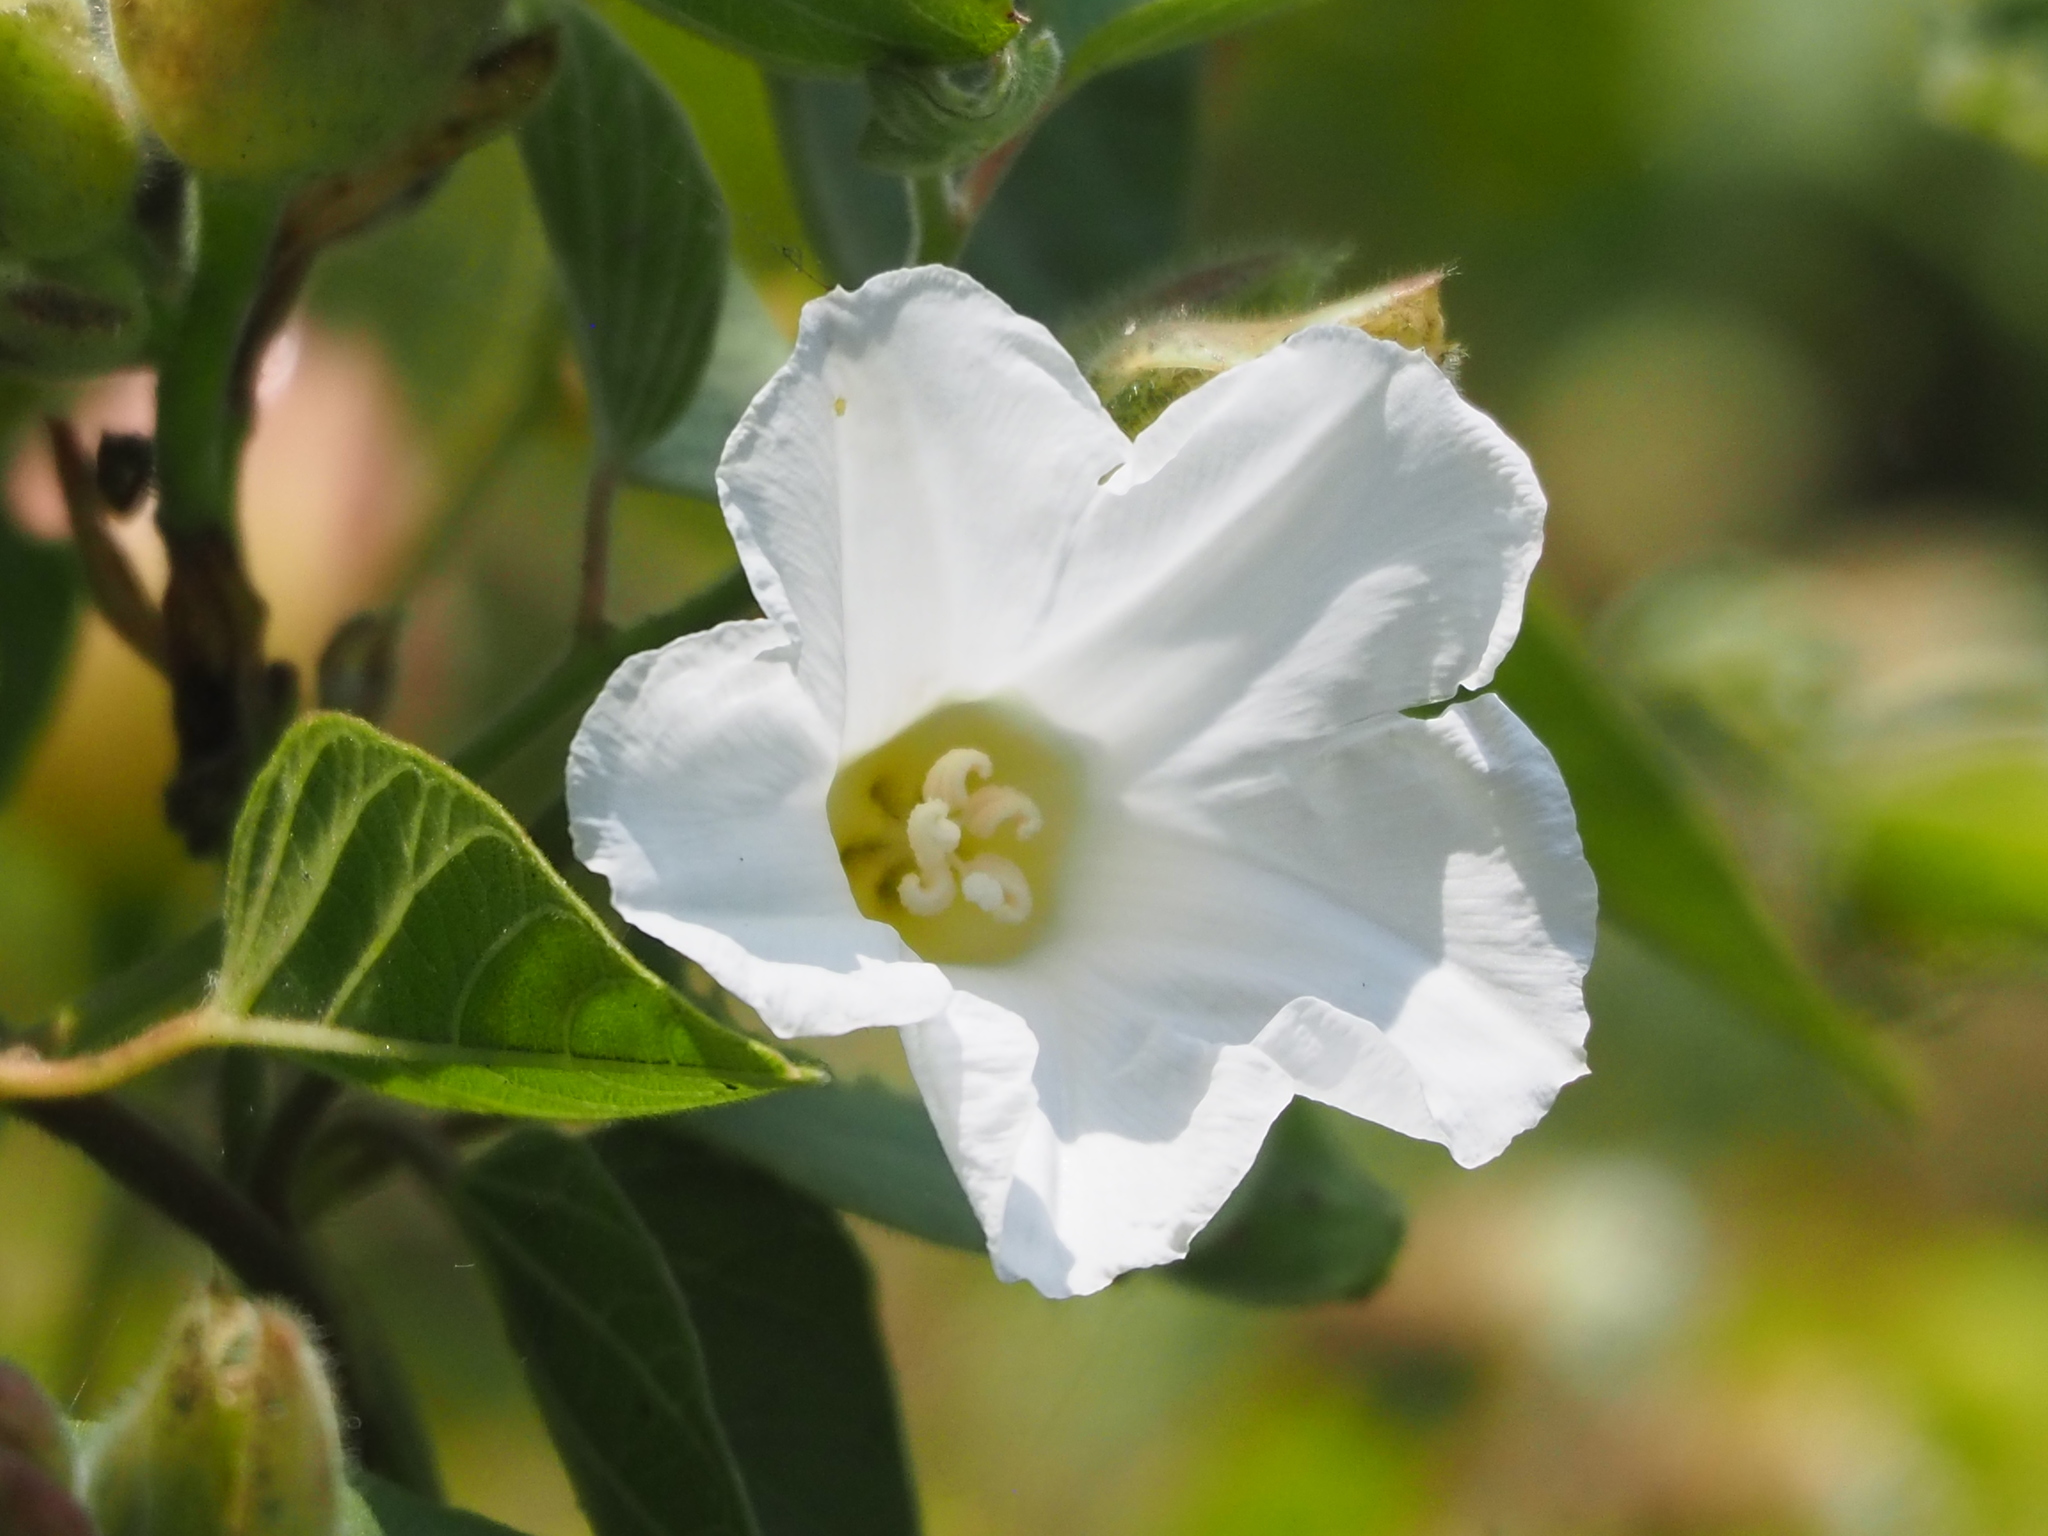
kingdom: Plantae
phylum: Tracheophyta
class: Magnoliopsida
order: Solanales
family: Convolvulaceae
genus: Operculina
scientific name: Operculina turpethum
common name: Transparent wood-rose
